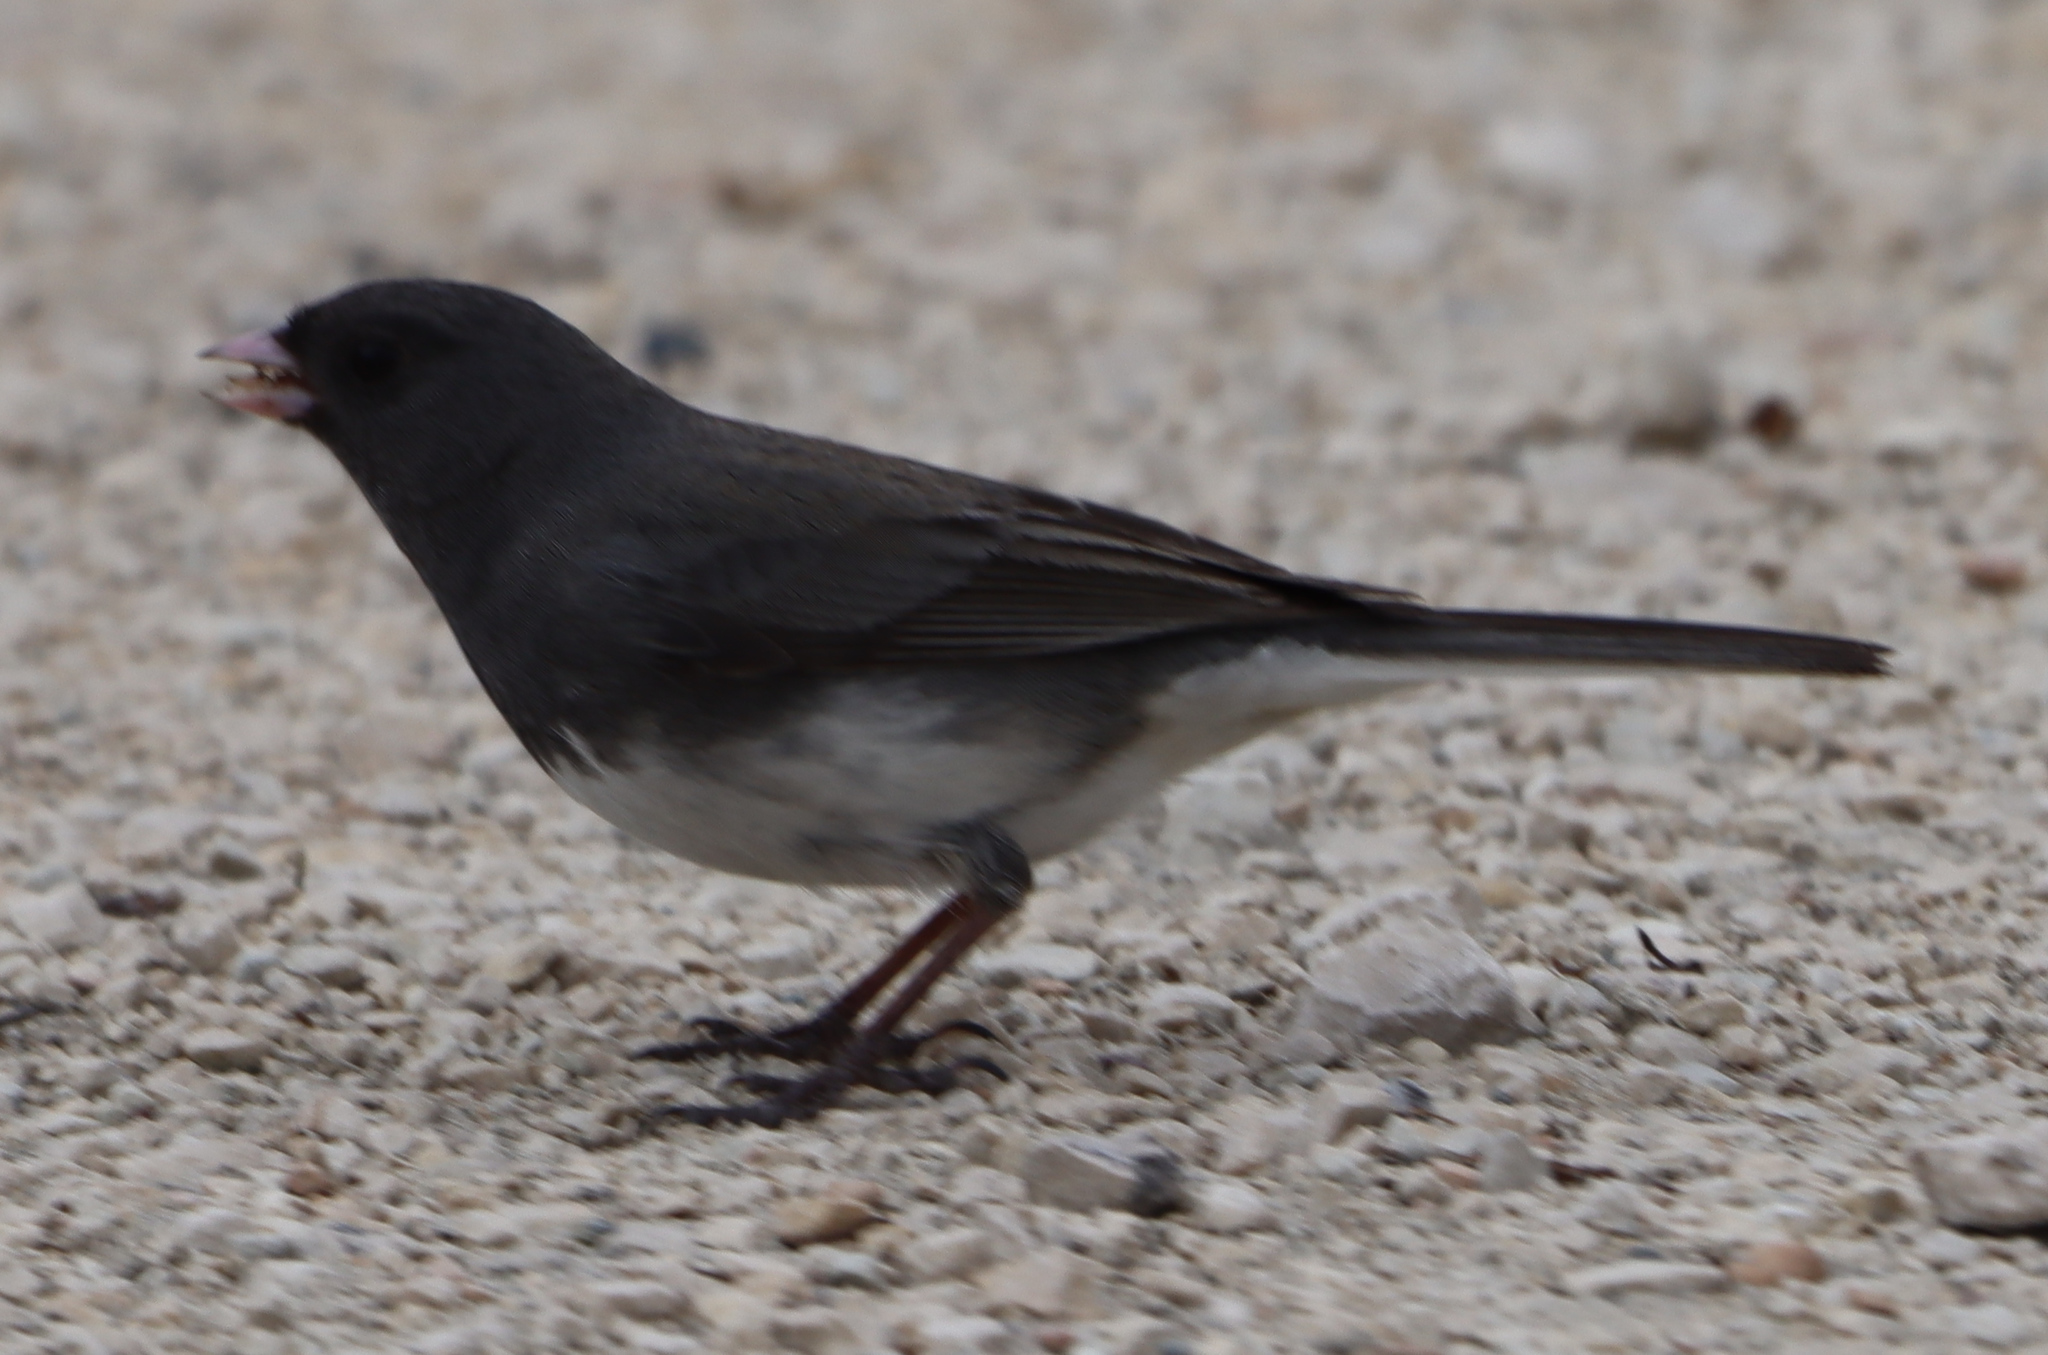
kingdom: Animalia
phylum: Chordata
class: Aves
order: Passeriformes
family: Passerellidae
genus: Junco
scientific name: Junco hyemalis
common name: Dark-eyed junco
